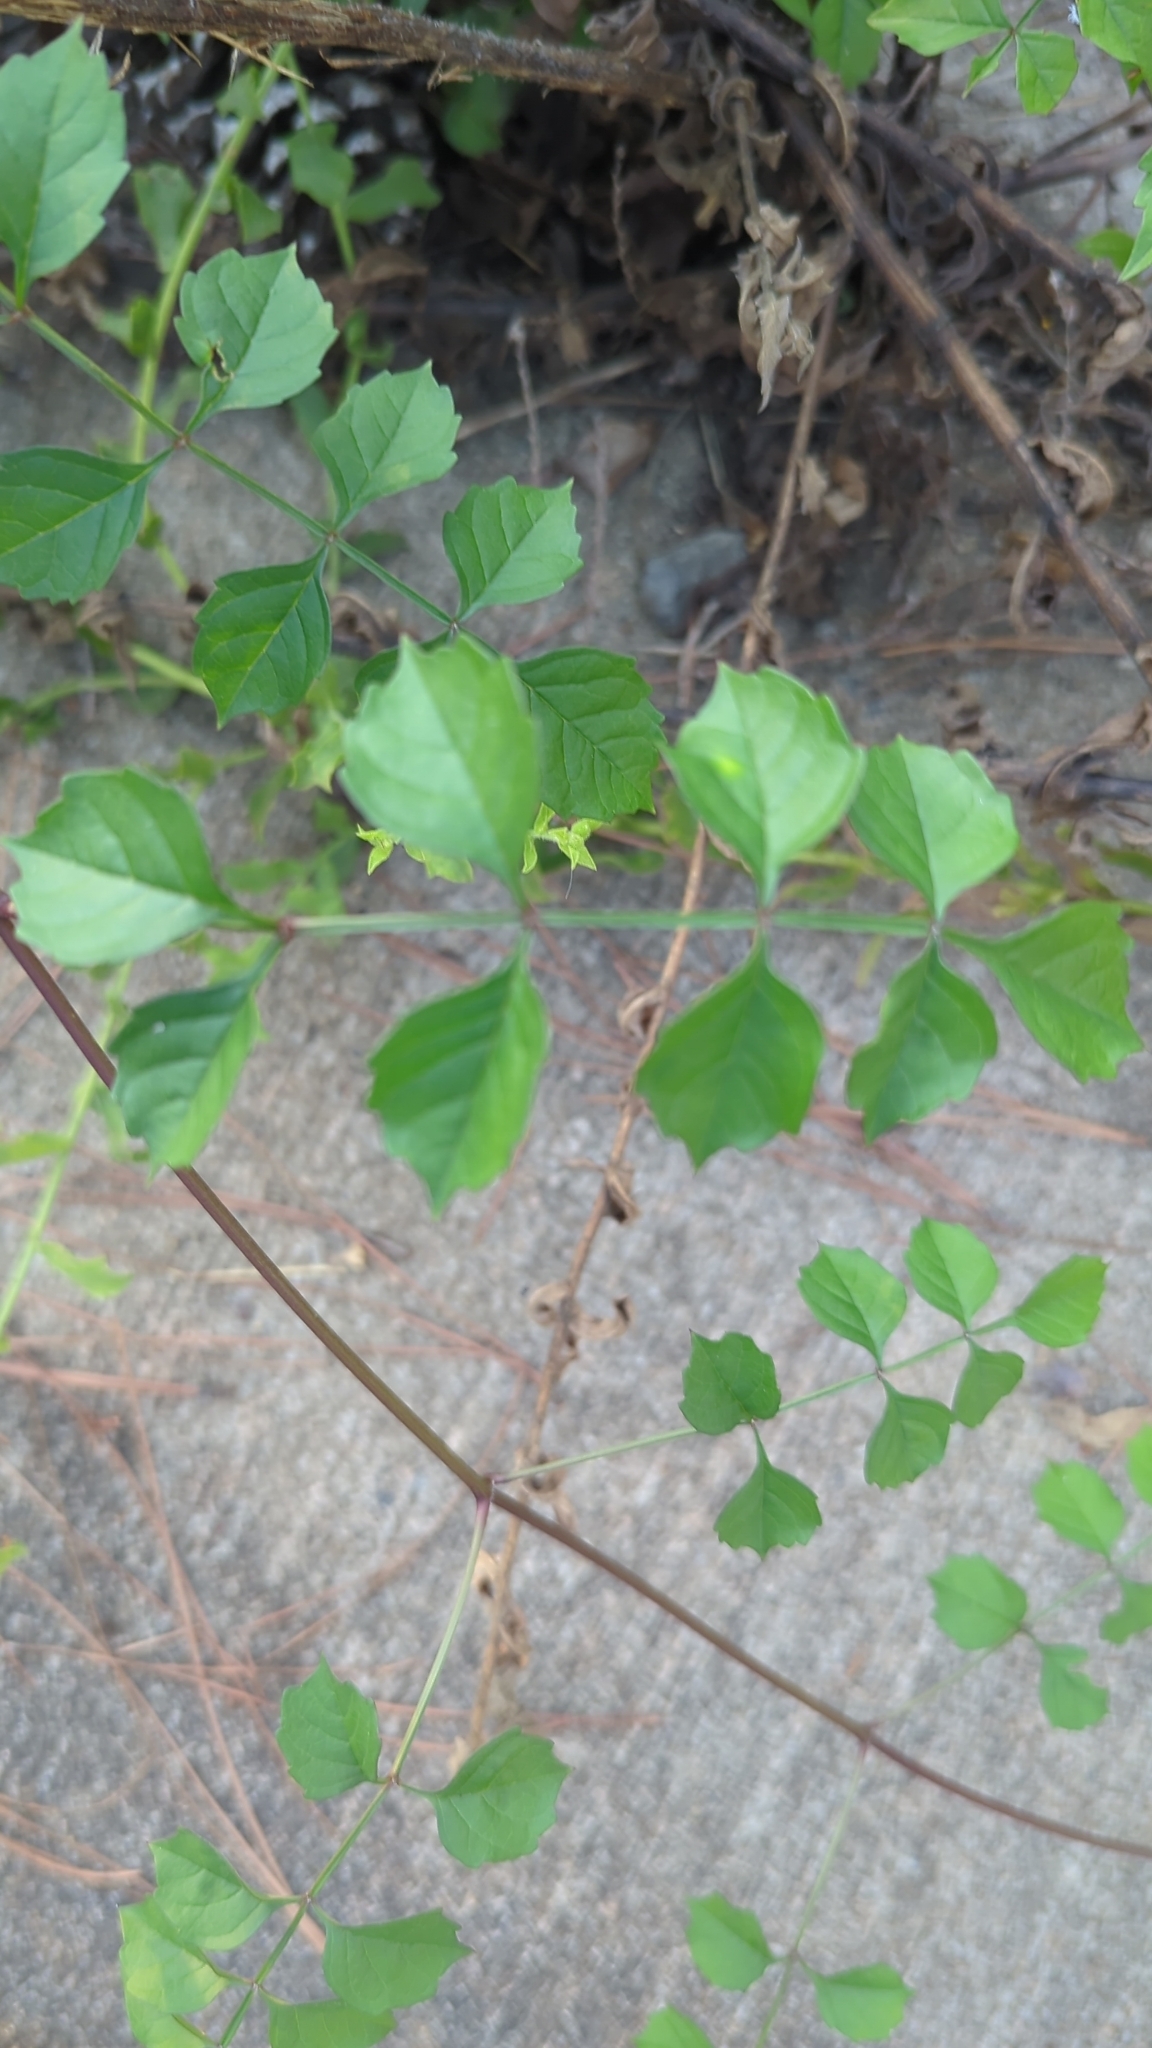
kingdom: Plantae
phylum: Tracheophyta
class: Magnoliopsida
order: Lamiales
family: Bignoniaceae
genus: Campsis
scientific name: Campsis radicans
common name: Trumpet-creeper
